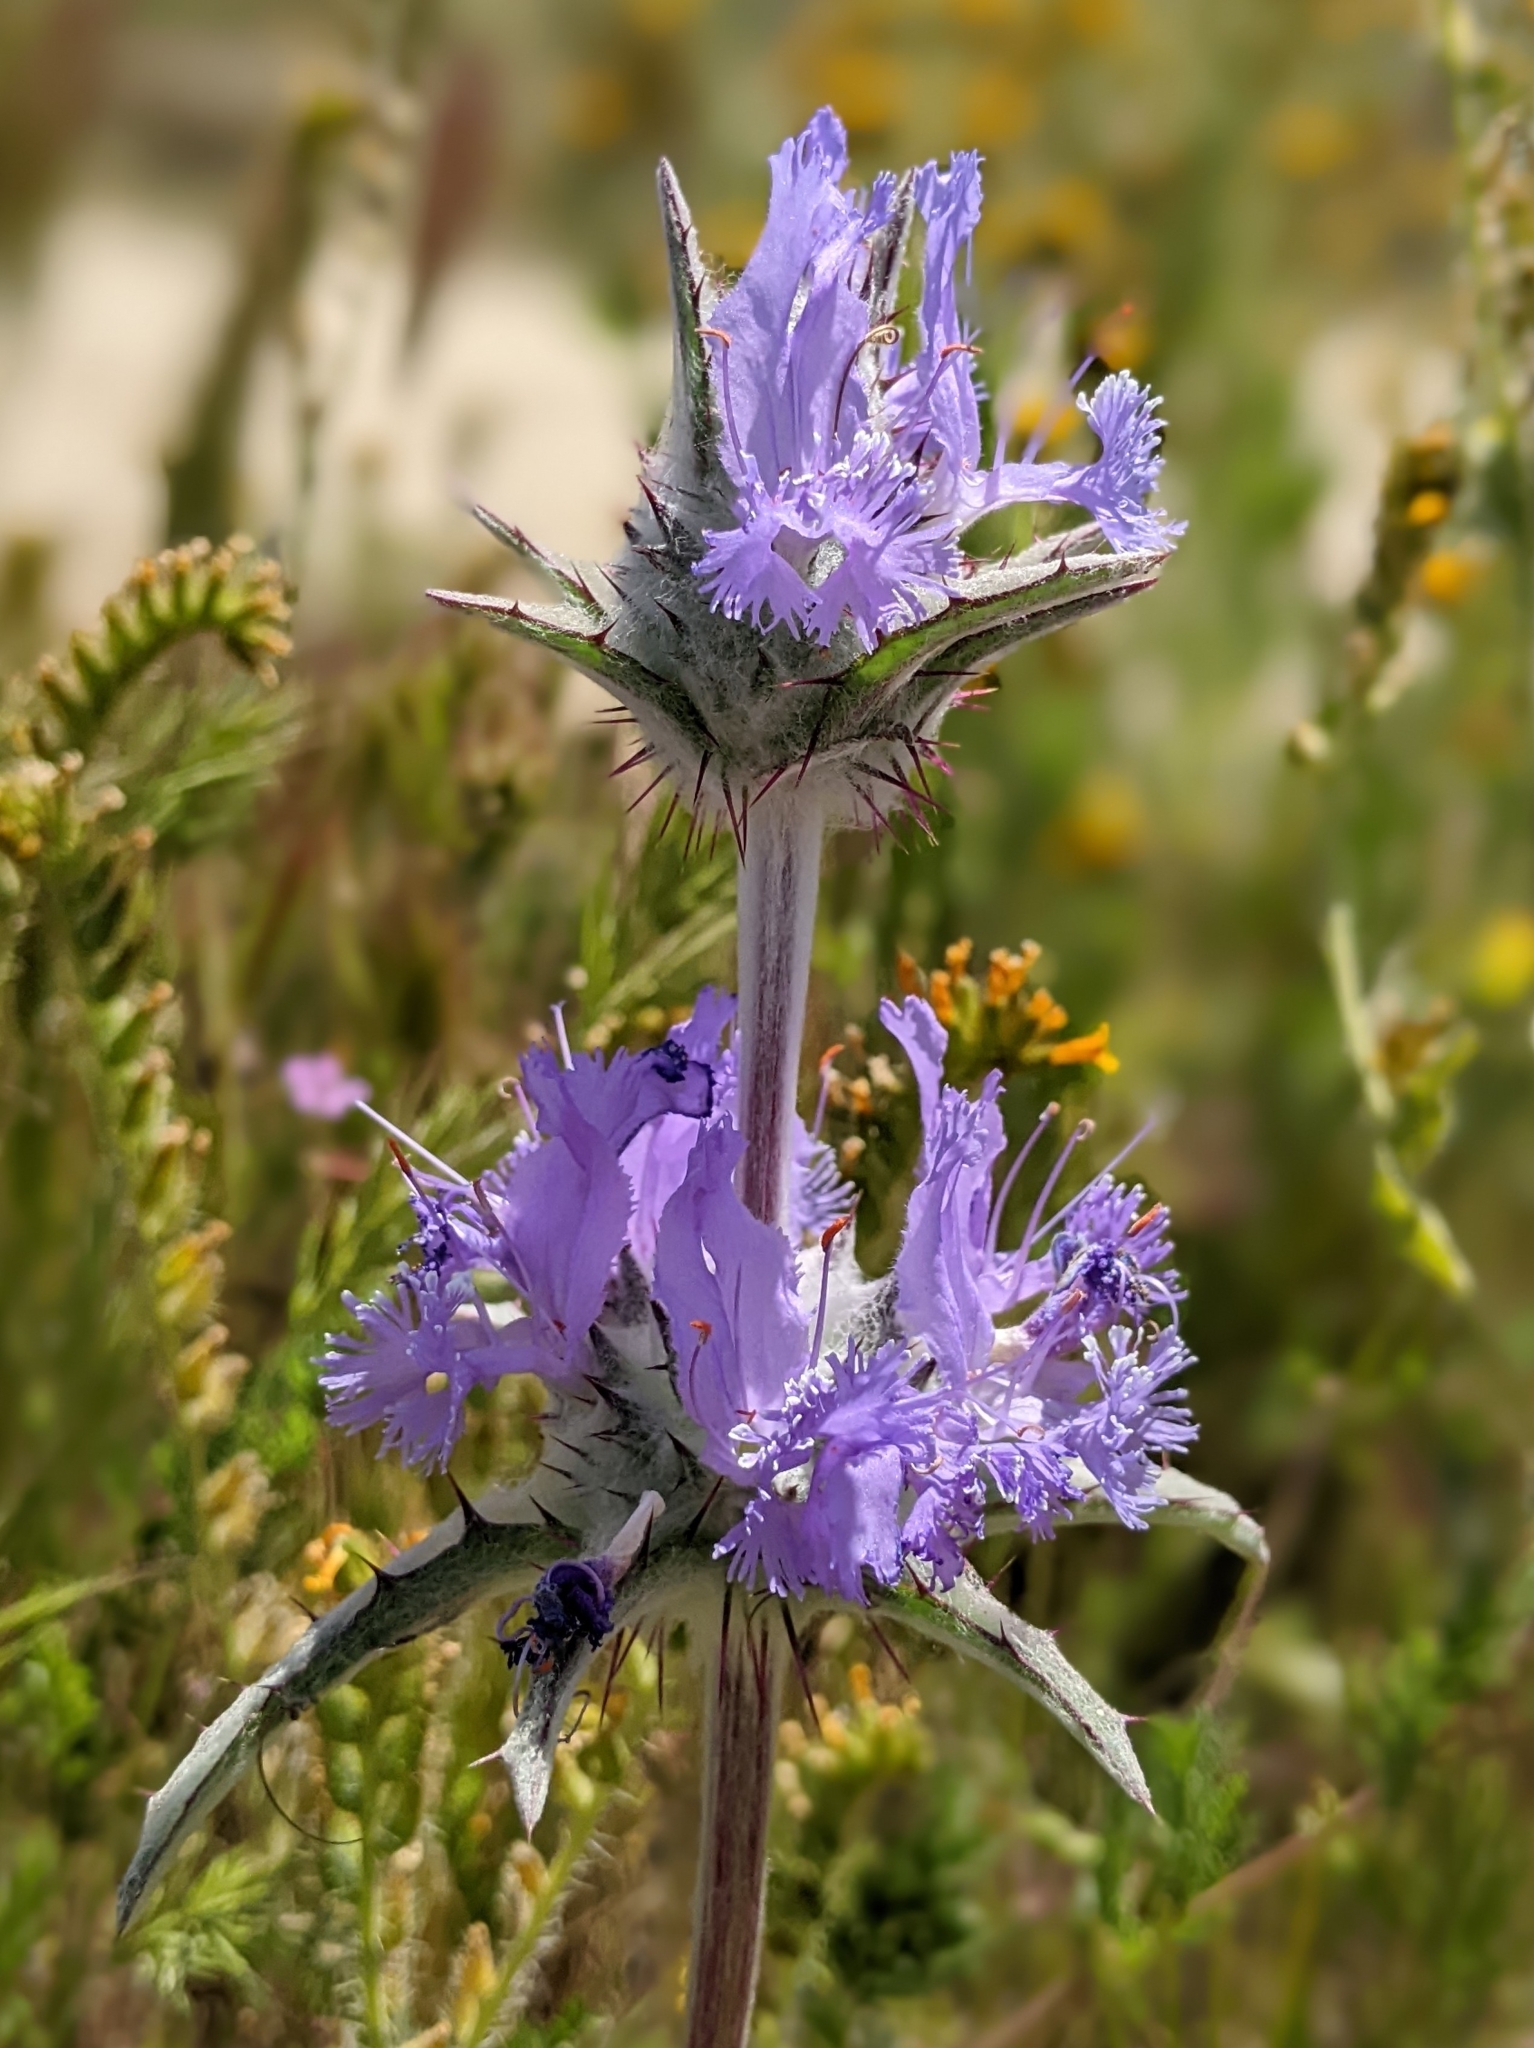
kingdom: Plantae
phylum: Tracheophyta
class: Magnoliopsida
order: Lamiales
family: Lamiaceae
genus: Salvia
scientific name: Salvia carduacea
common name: Thistle sage
